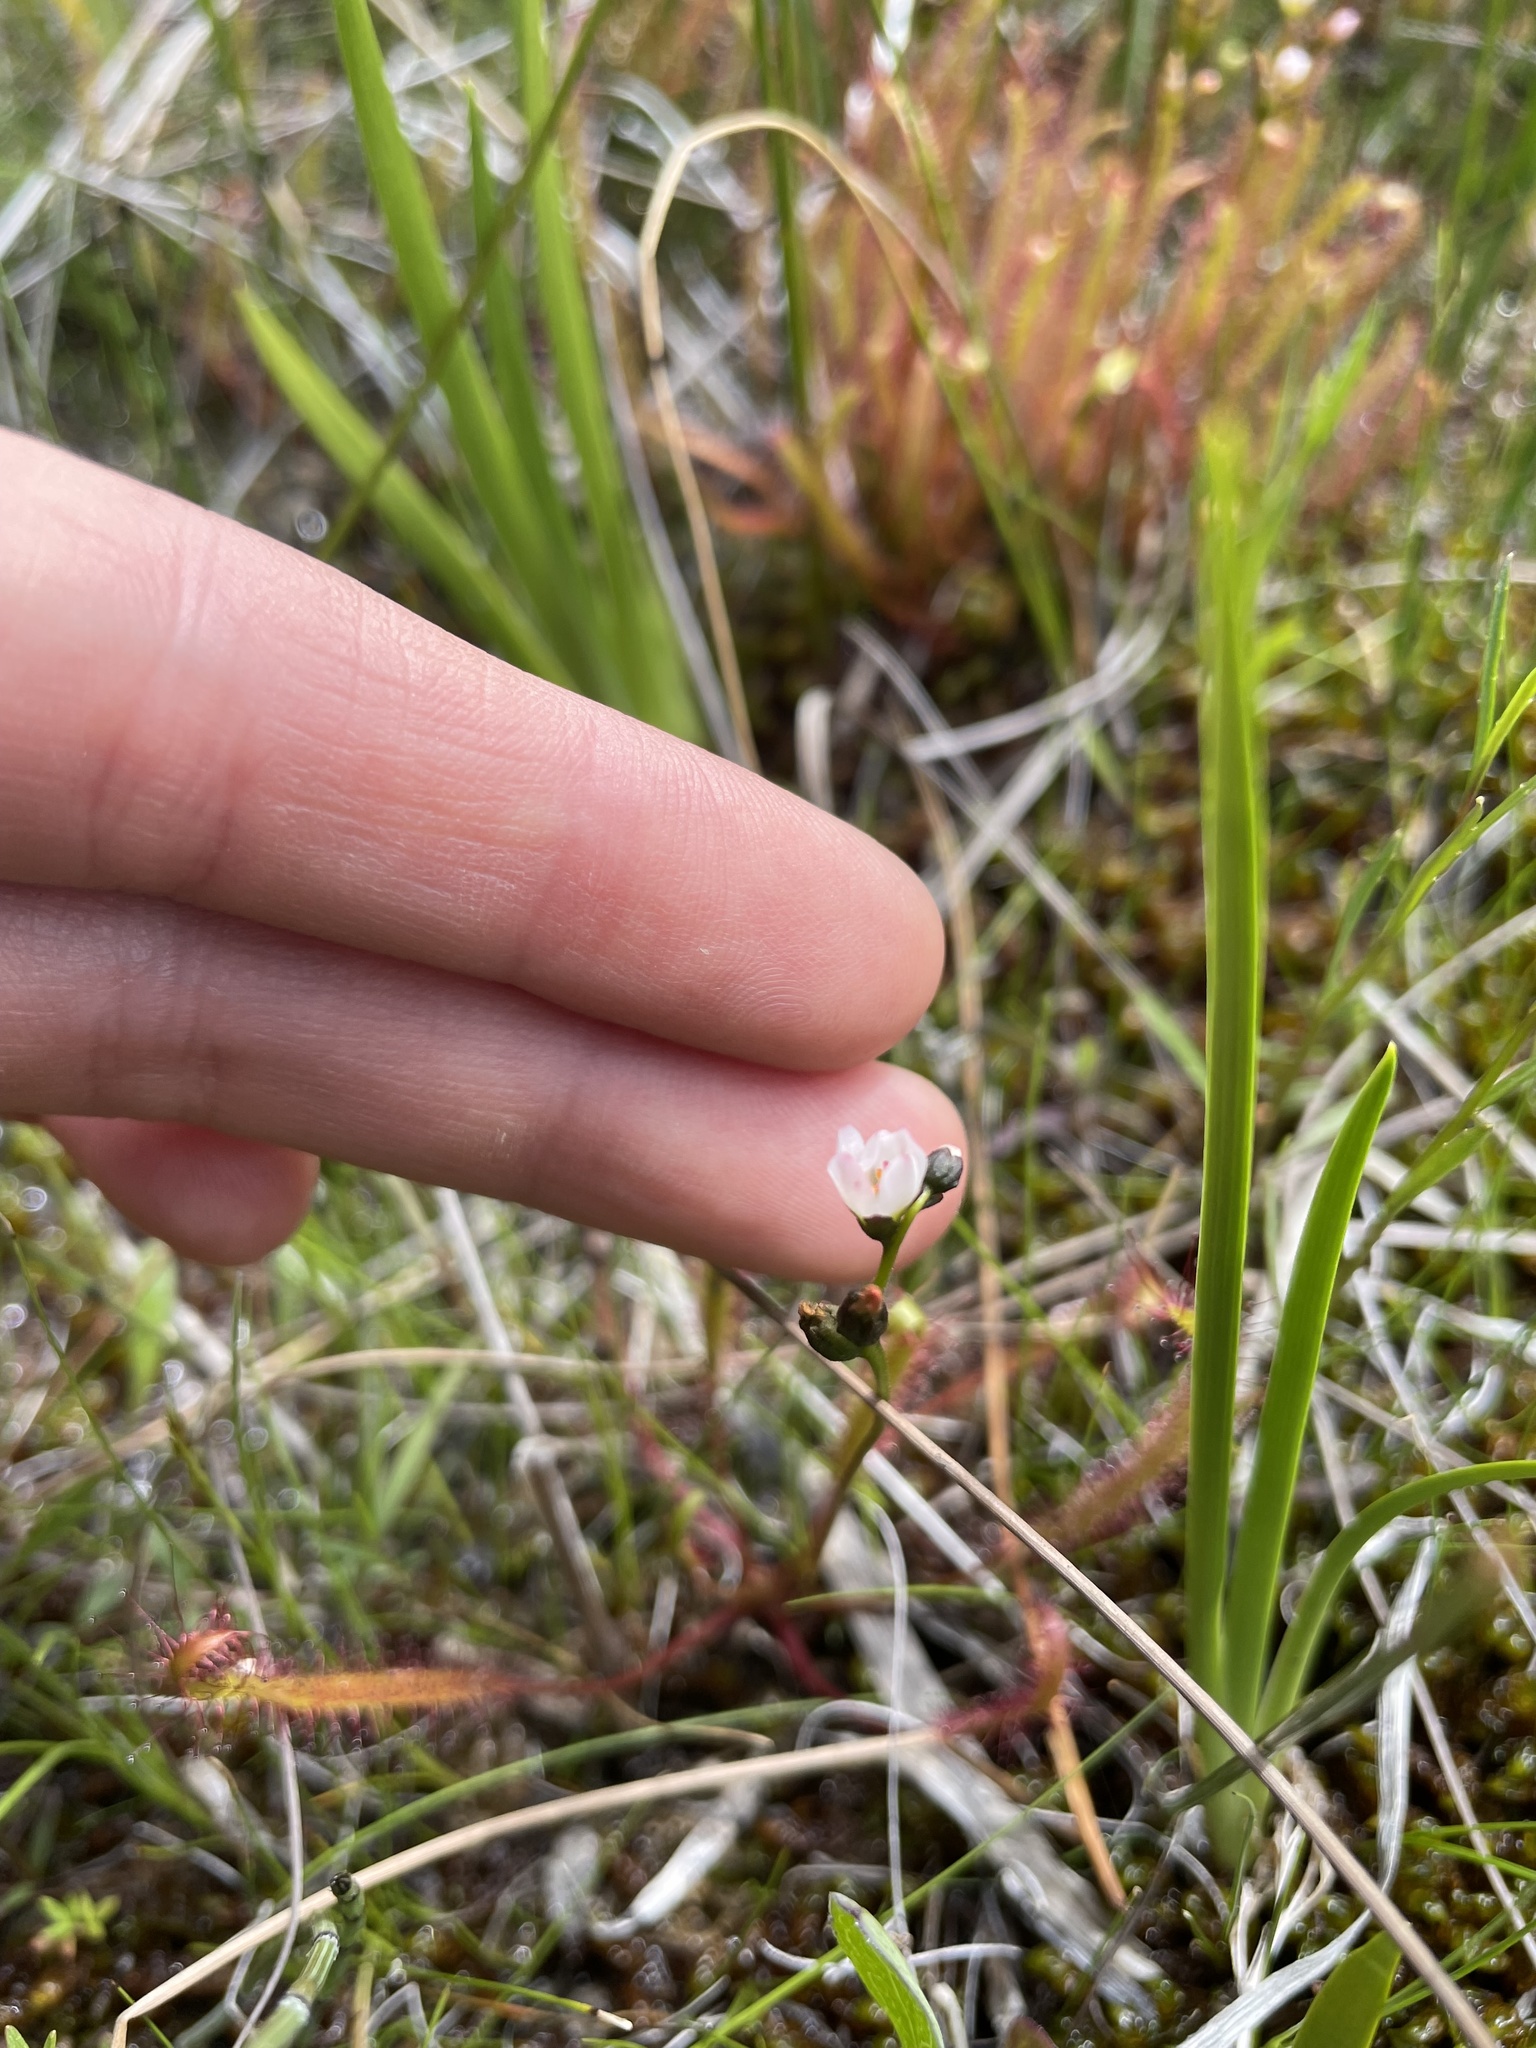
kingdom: Plantae
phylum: Tracheophyta
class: Magnoliopsida
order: Caryophyllales
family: Droseraceae
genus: Drosera
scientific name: Drosera linearis
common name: Linear-leaved sundew
